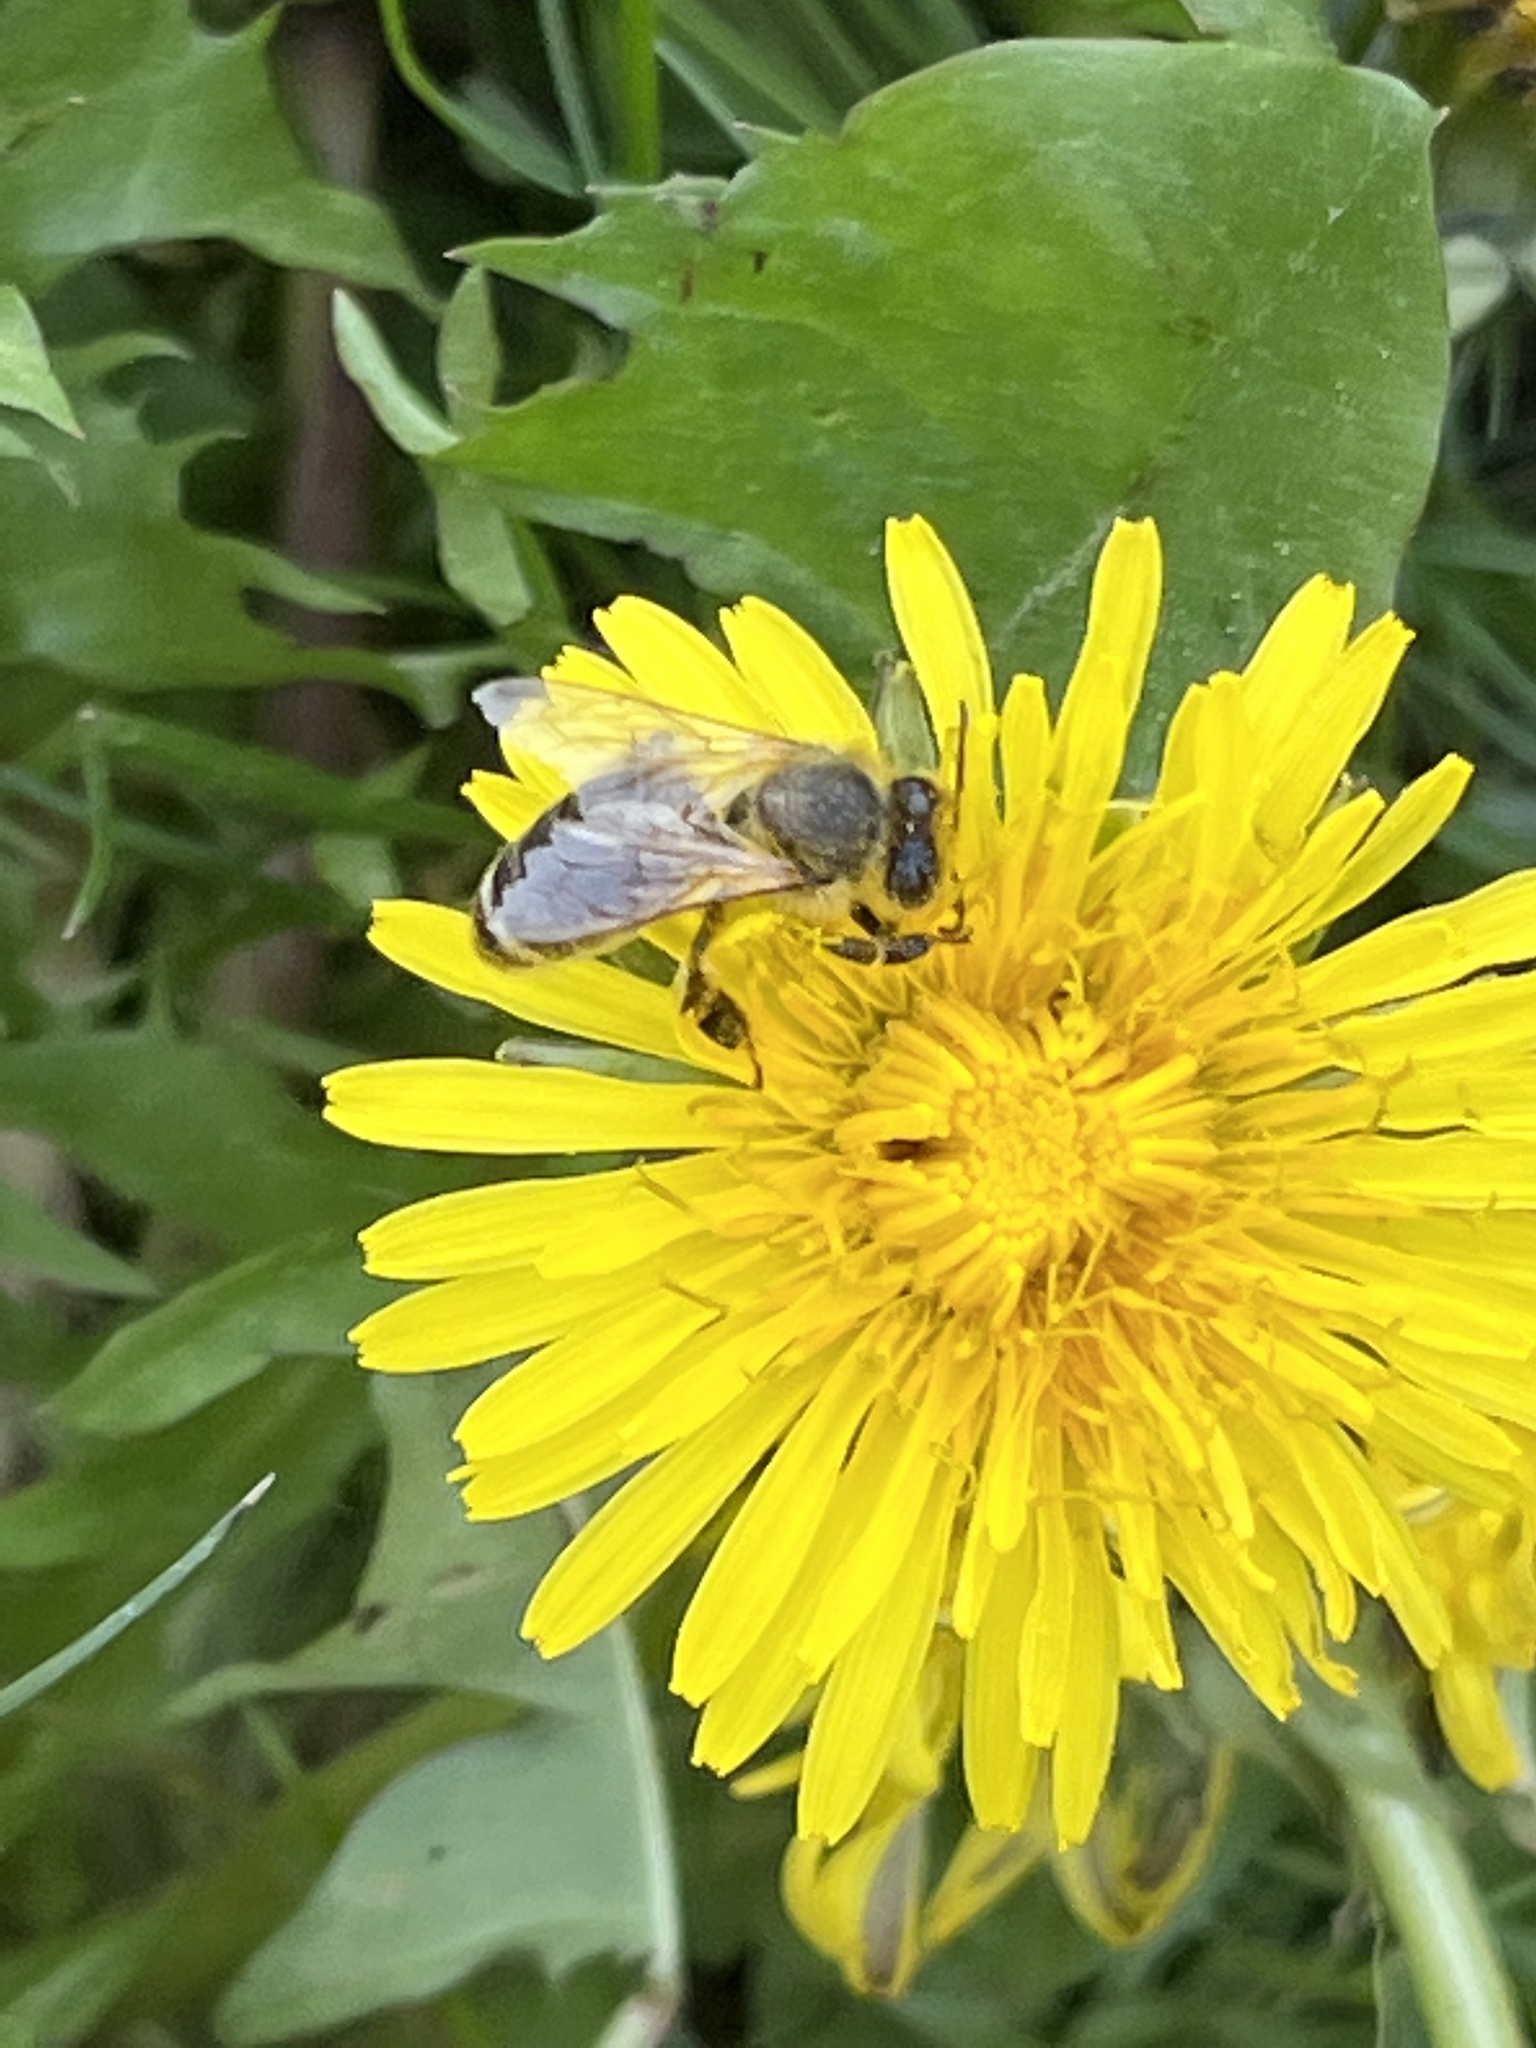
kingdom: Animalia
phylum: Arthropoda
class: Insecta
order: Hymenoptera
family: Apidae
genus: Apis
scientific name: Apis mellifera
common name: Honey bee
